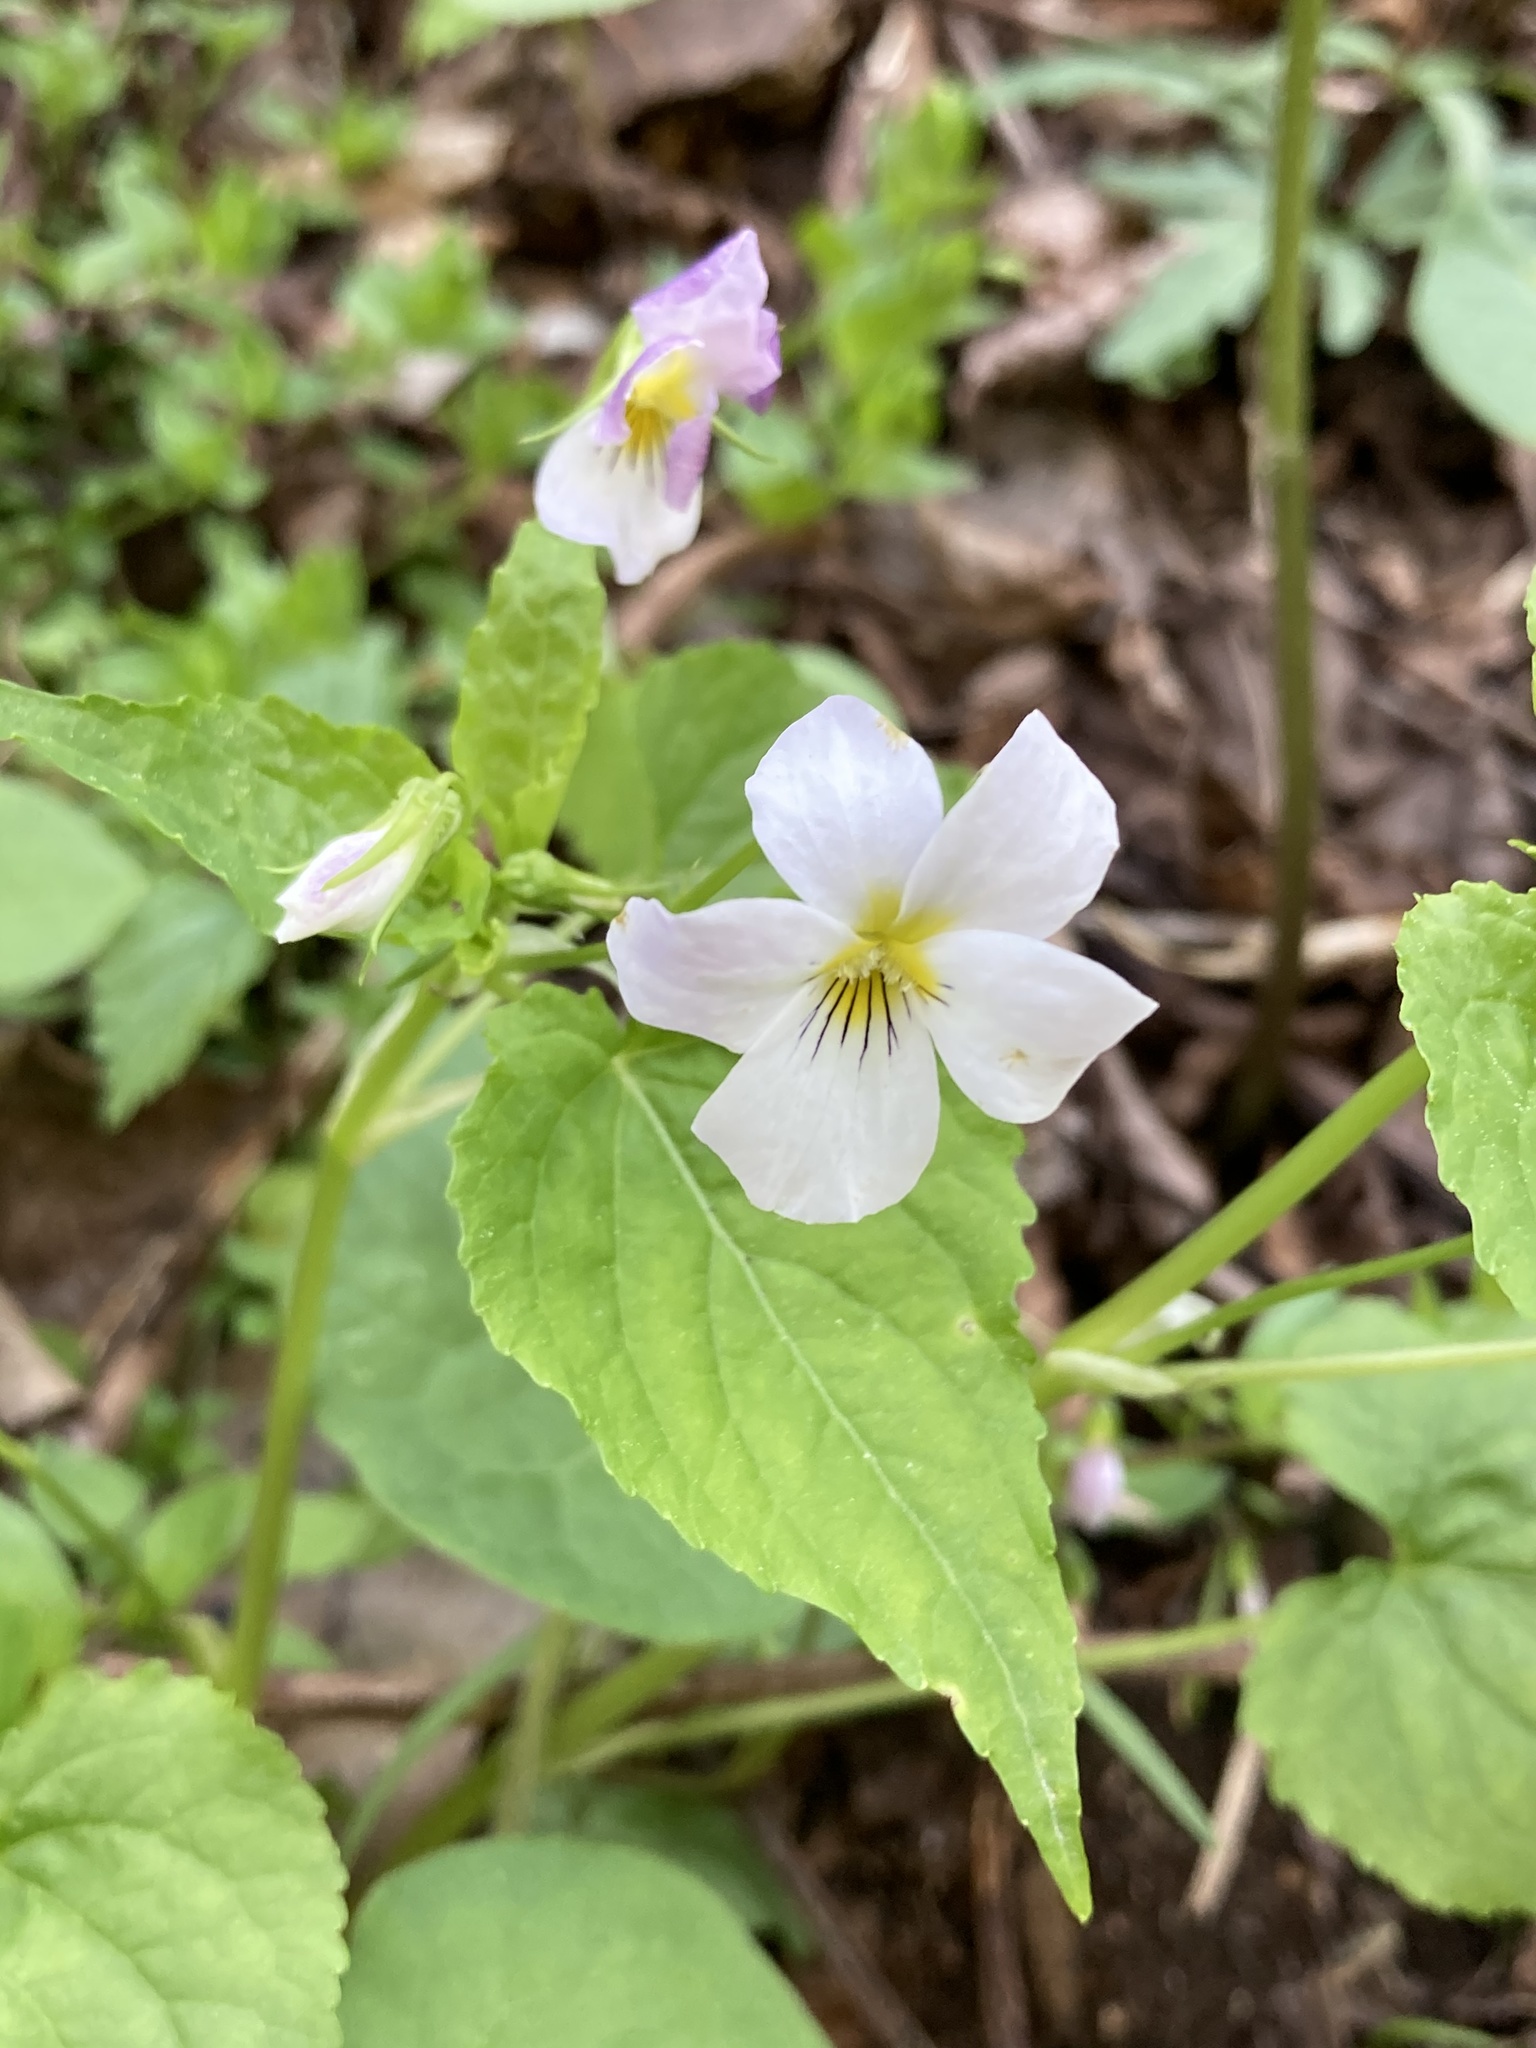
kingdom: Plantae
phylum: Tracheophyta
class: Magnoliopsida
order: Malpighiales
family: Violaceae
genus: Viola
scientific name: Viola canadensis
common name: Canada violet
